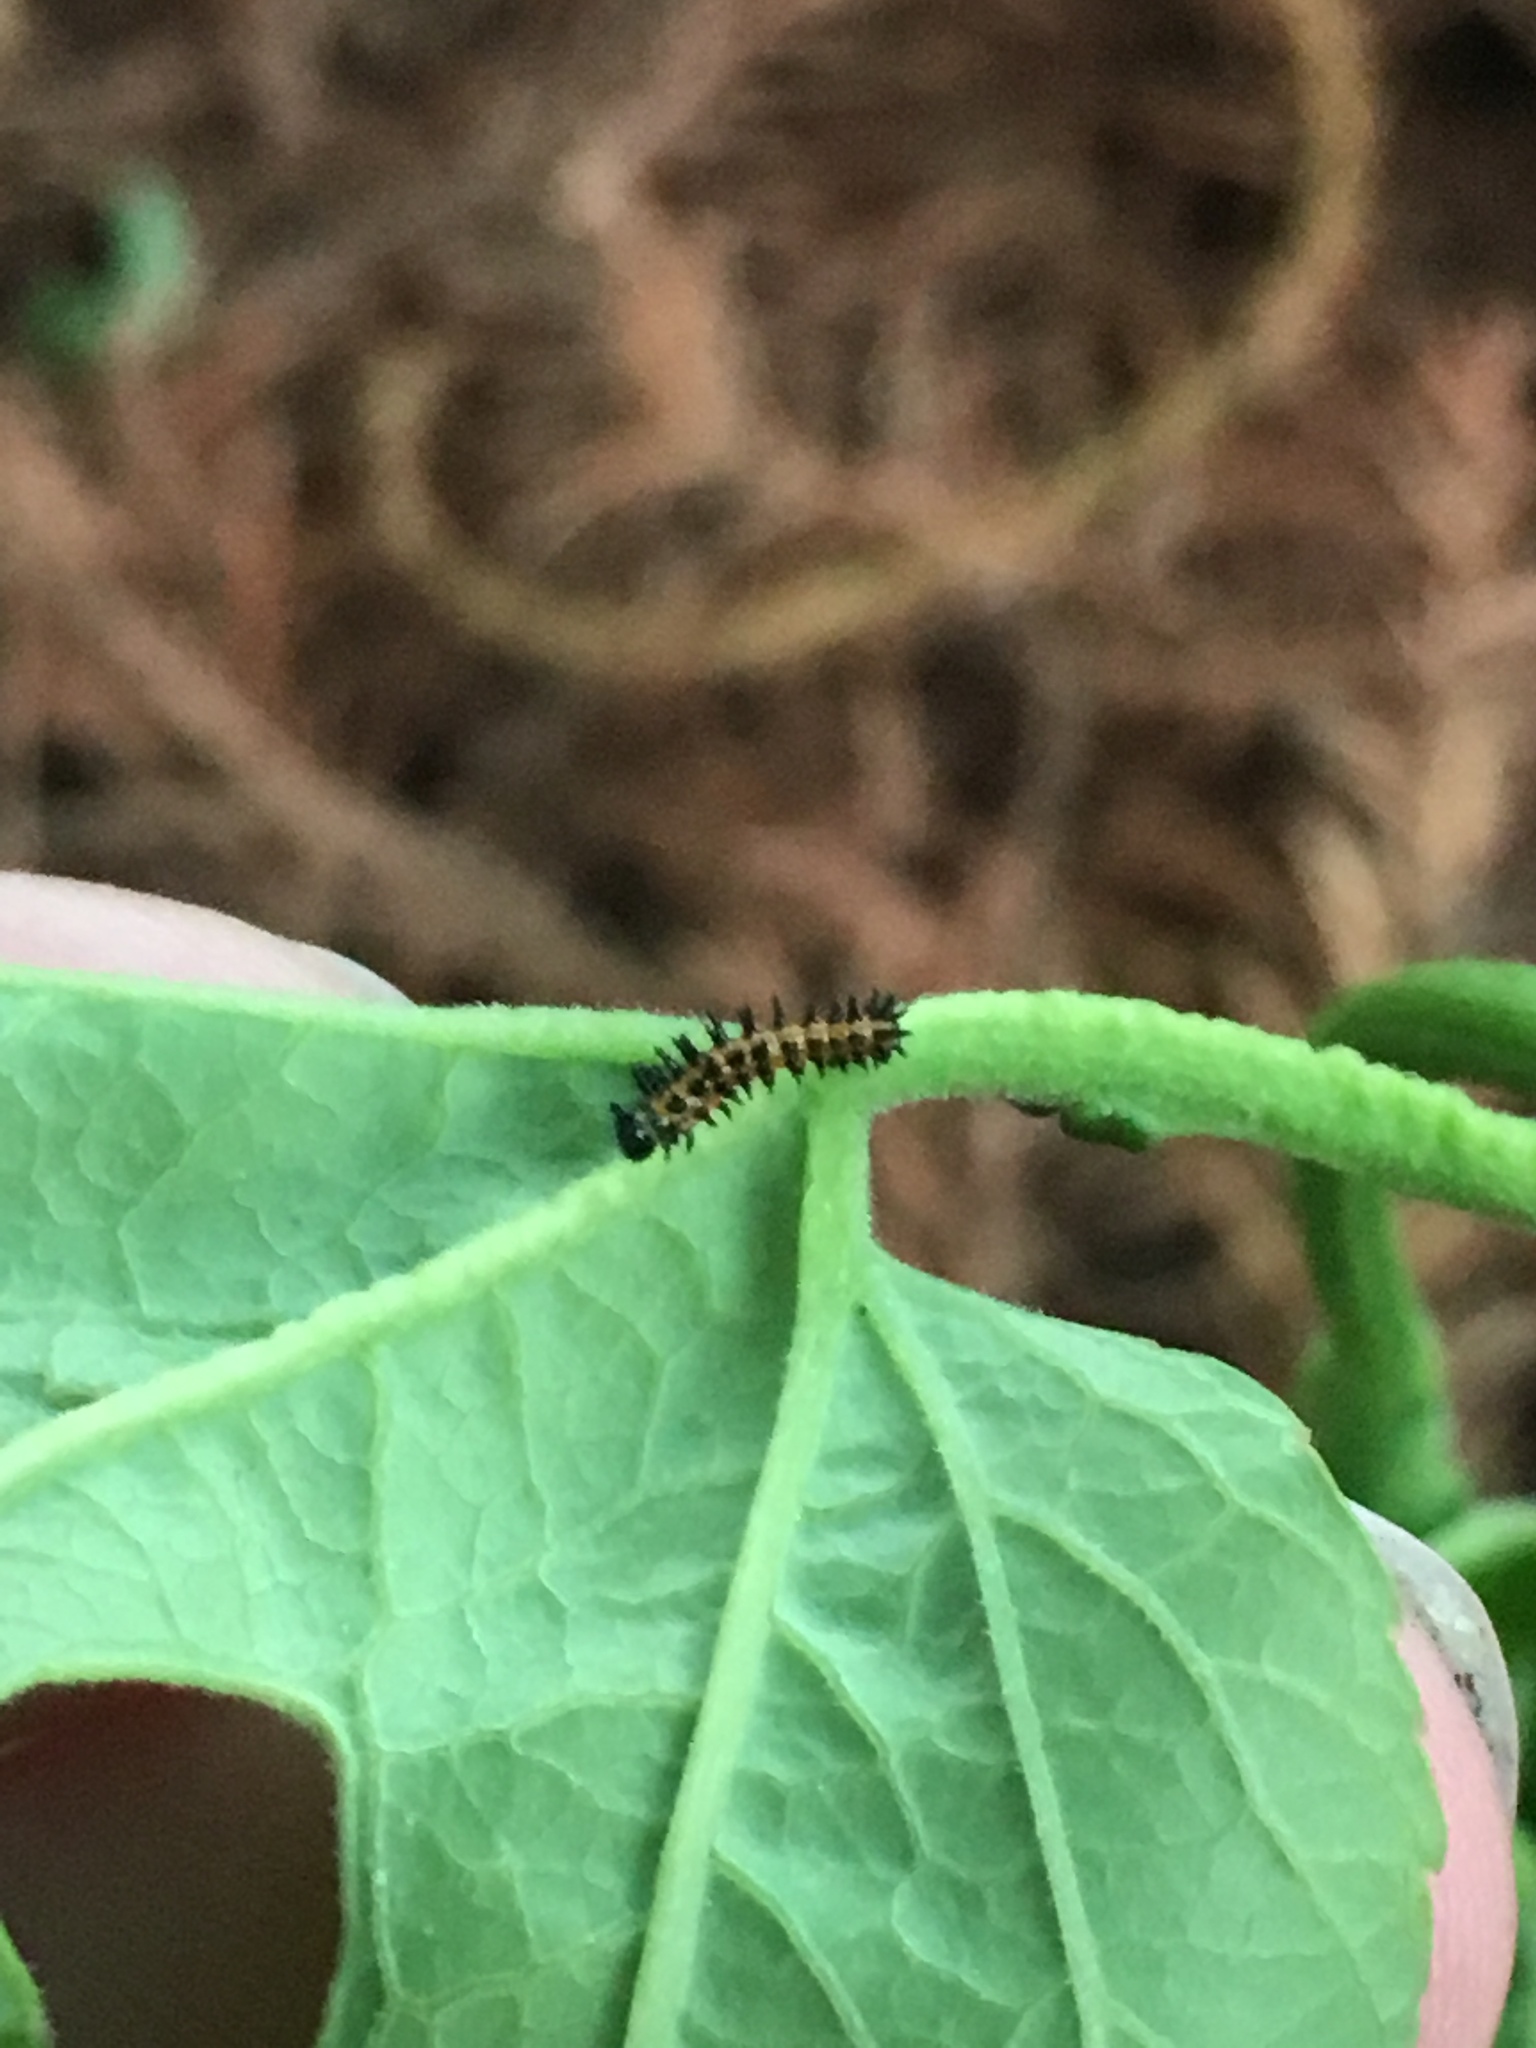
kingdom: Animalia
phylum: Arthropoda
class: Insecta
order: Lepidoptera
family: Nymphalidae
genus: Dione
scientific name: Dione vanillae
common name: Gulf fritillary
